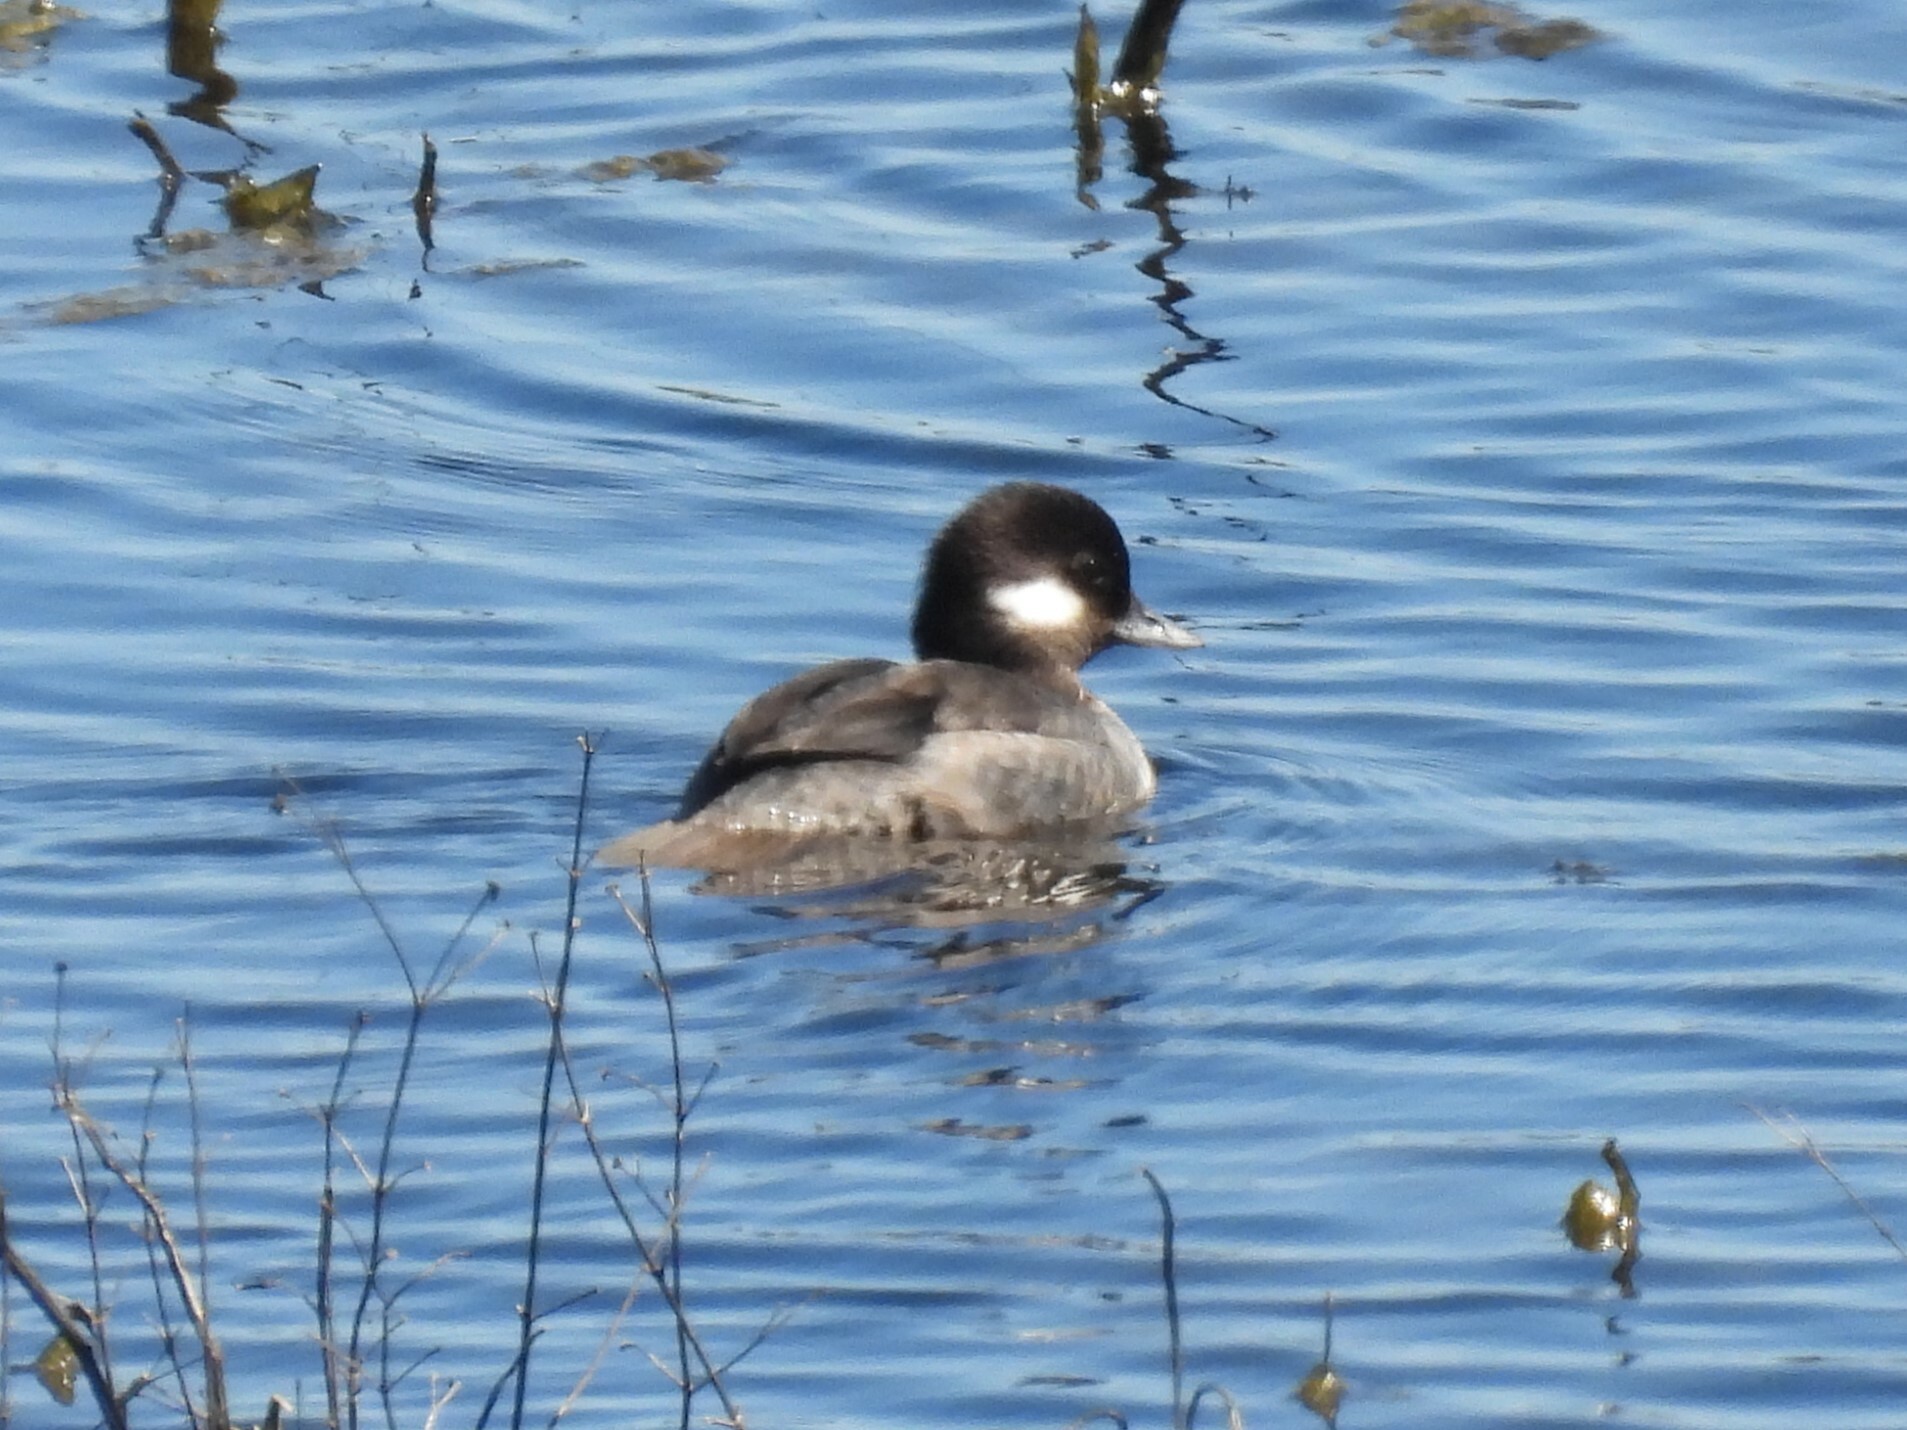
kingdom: Animalia
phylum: Chordata
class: Aves
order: Anseriformes
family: Anatidae
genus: Bucephala
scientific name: Bucephala albeola
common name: Bufflehead
